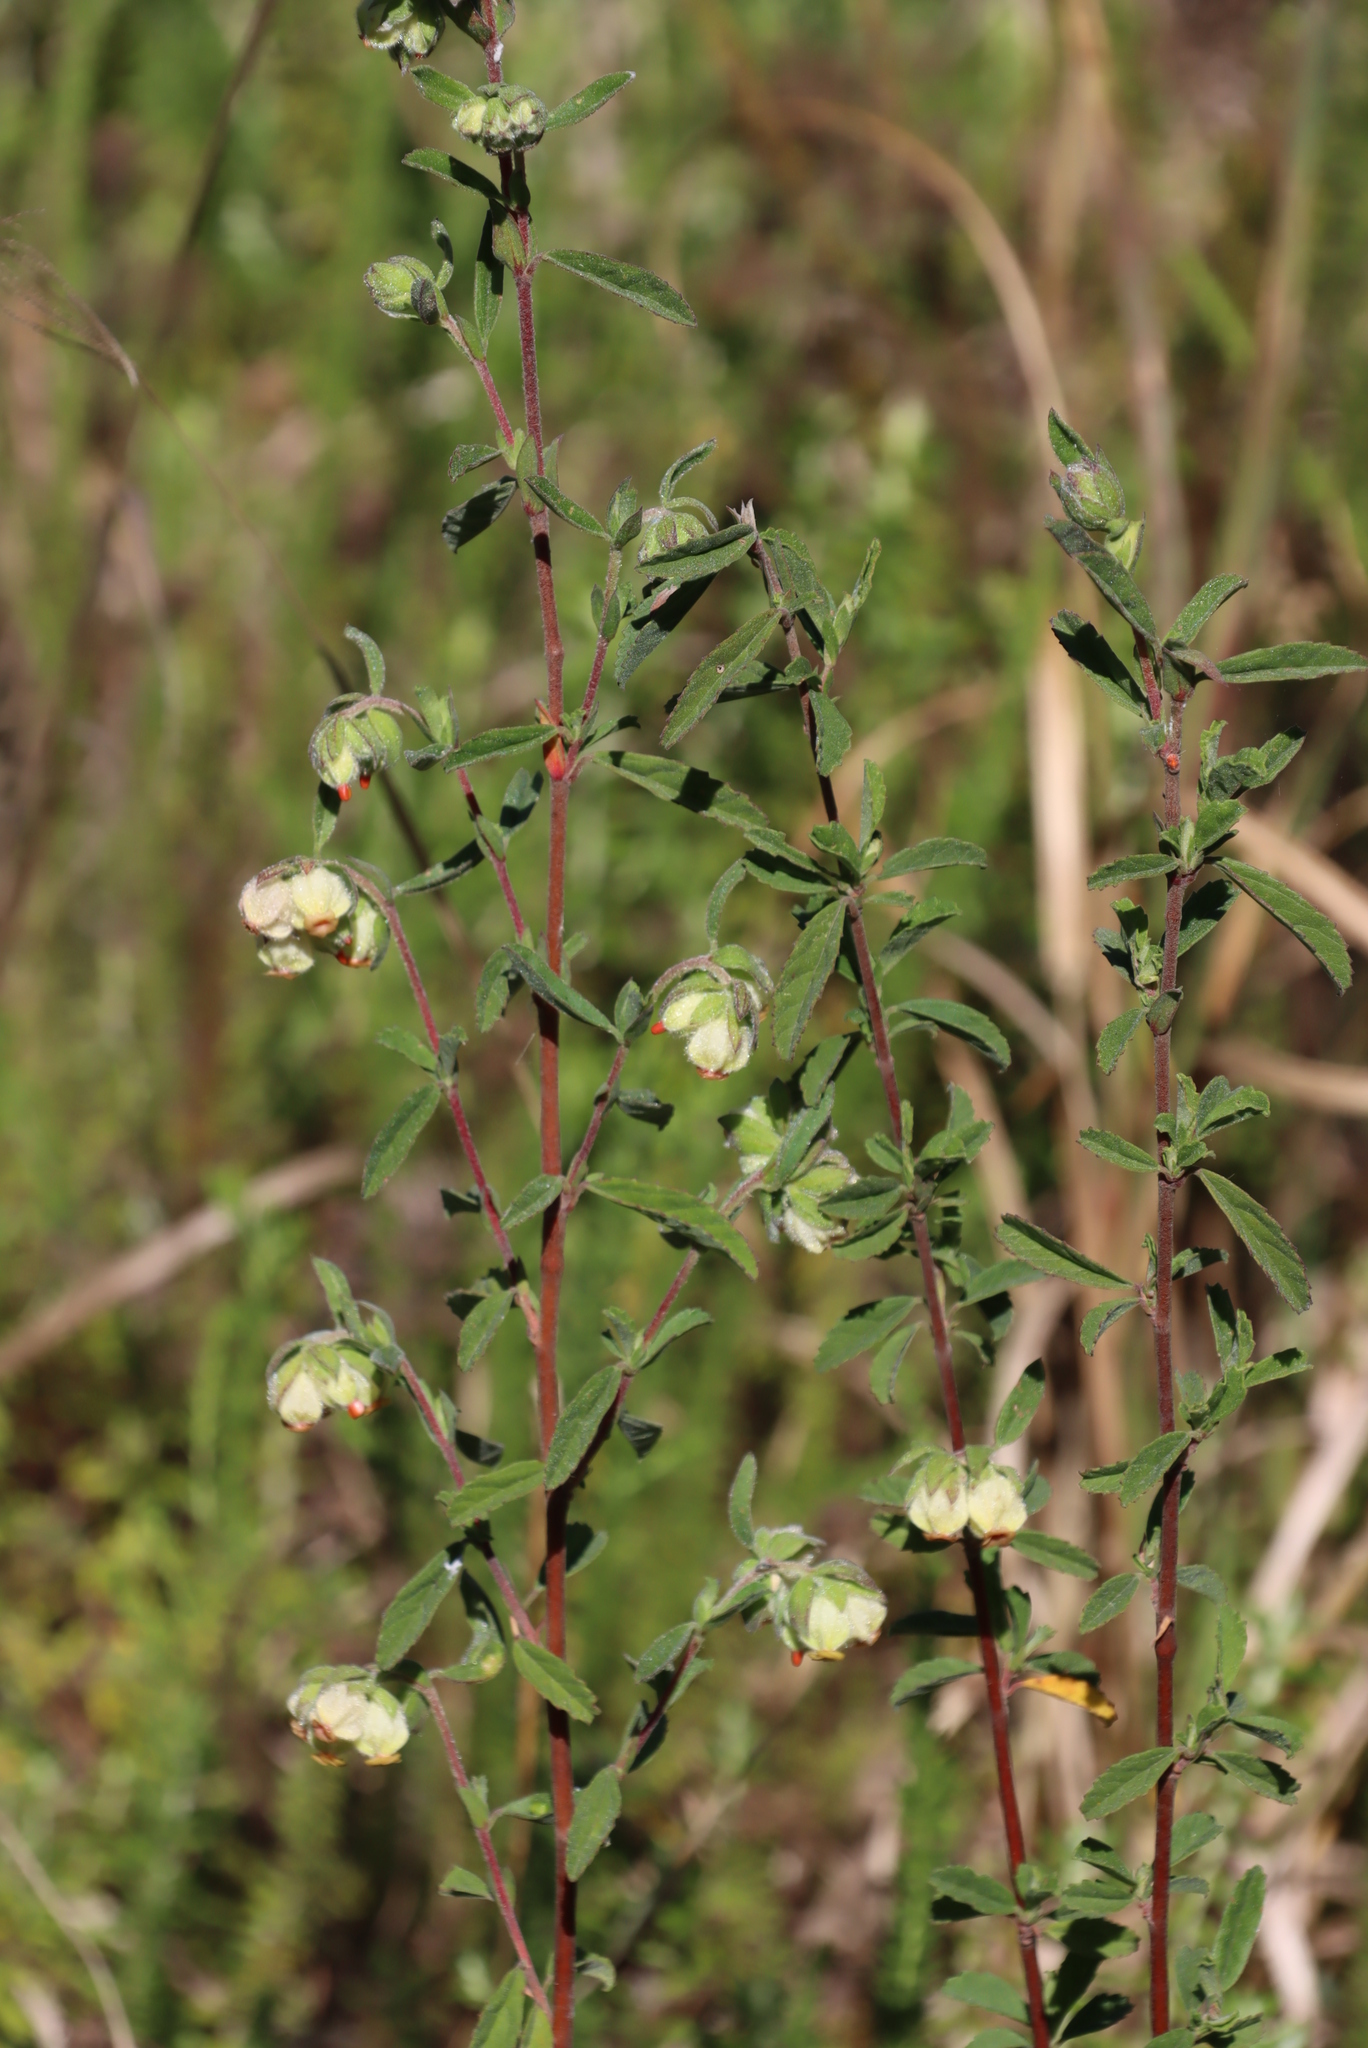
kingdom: Plantae
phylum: Tracheophyta
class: Magnoliopsida
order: Malvales
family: Malvaceae
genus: Hermannia
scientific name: Hermannia hyssopifolia
